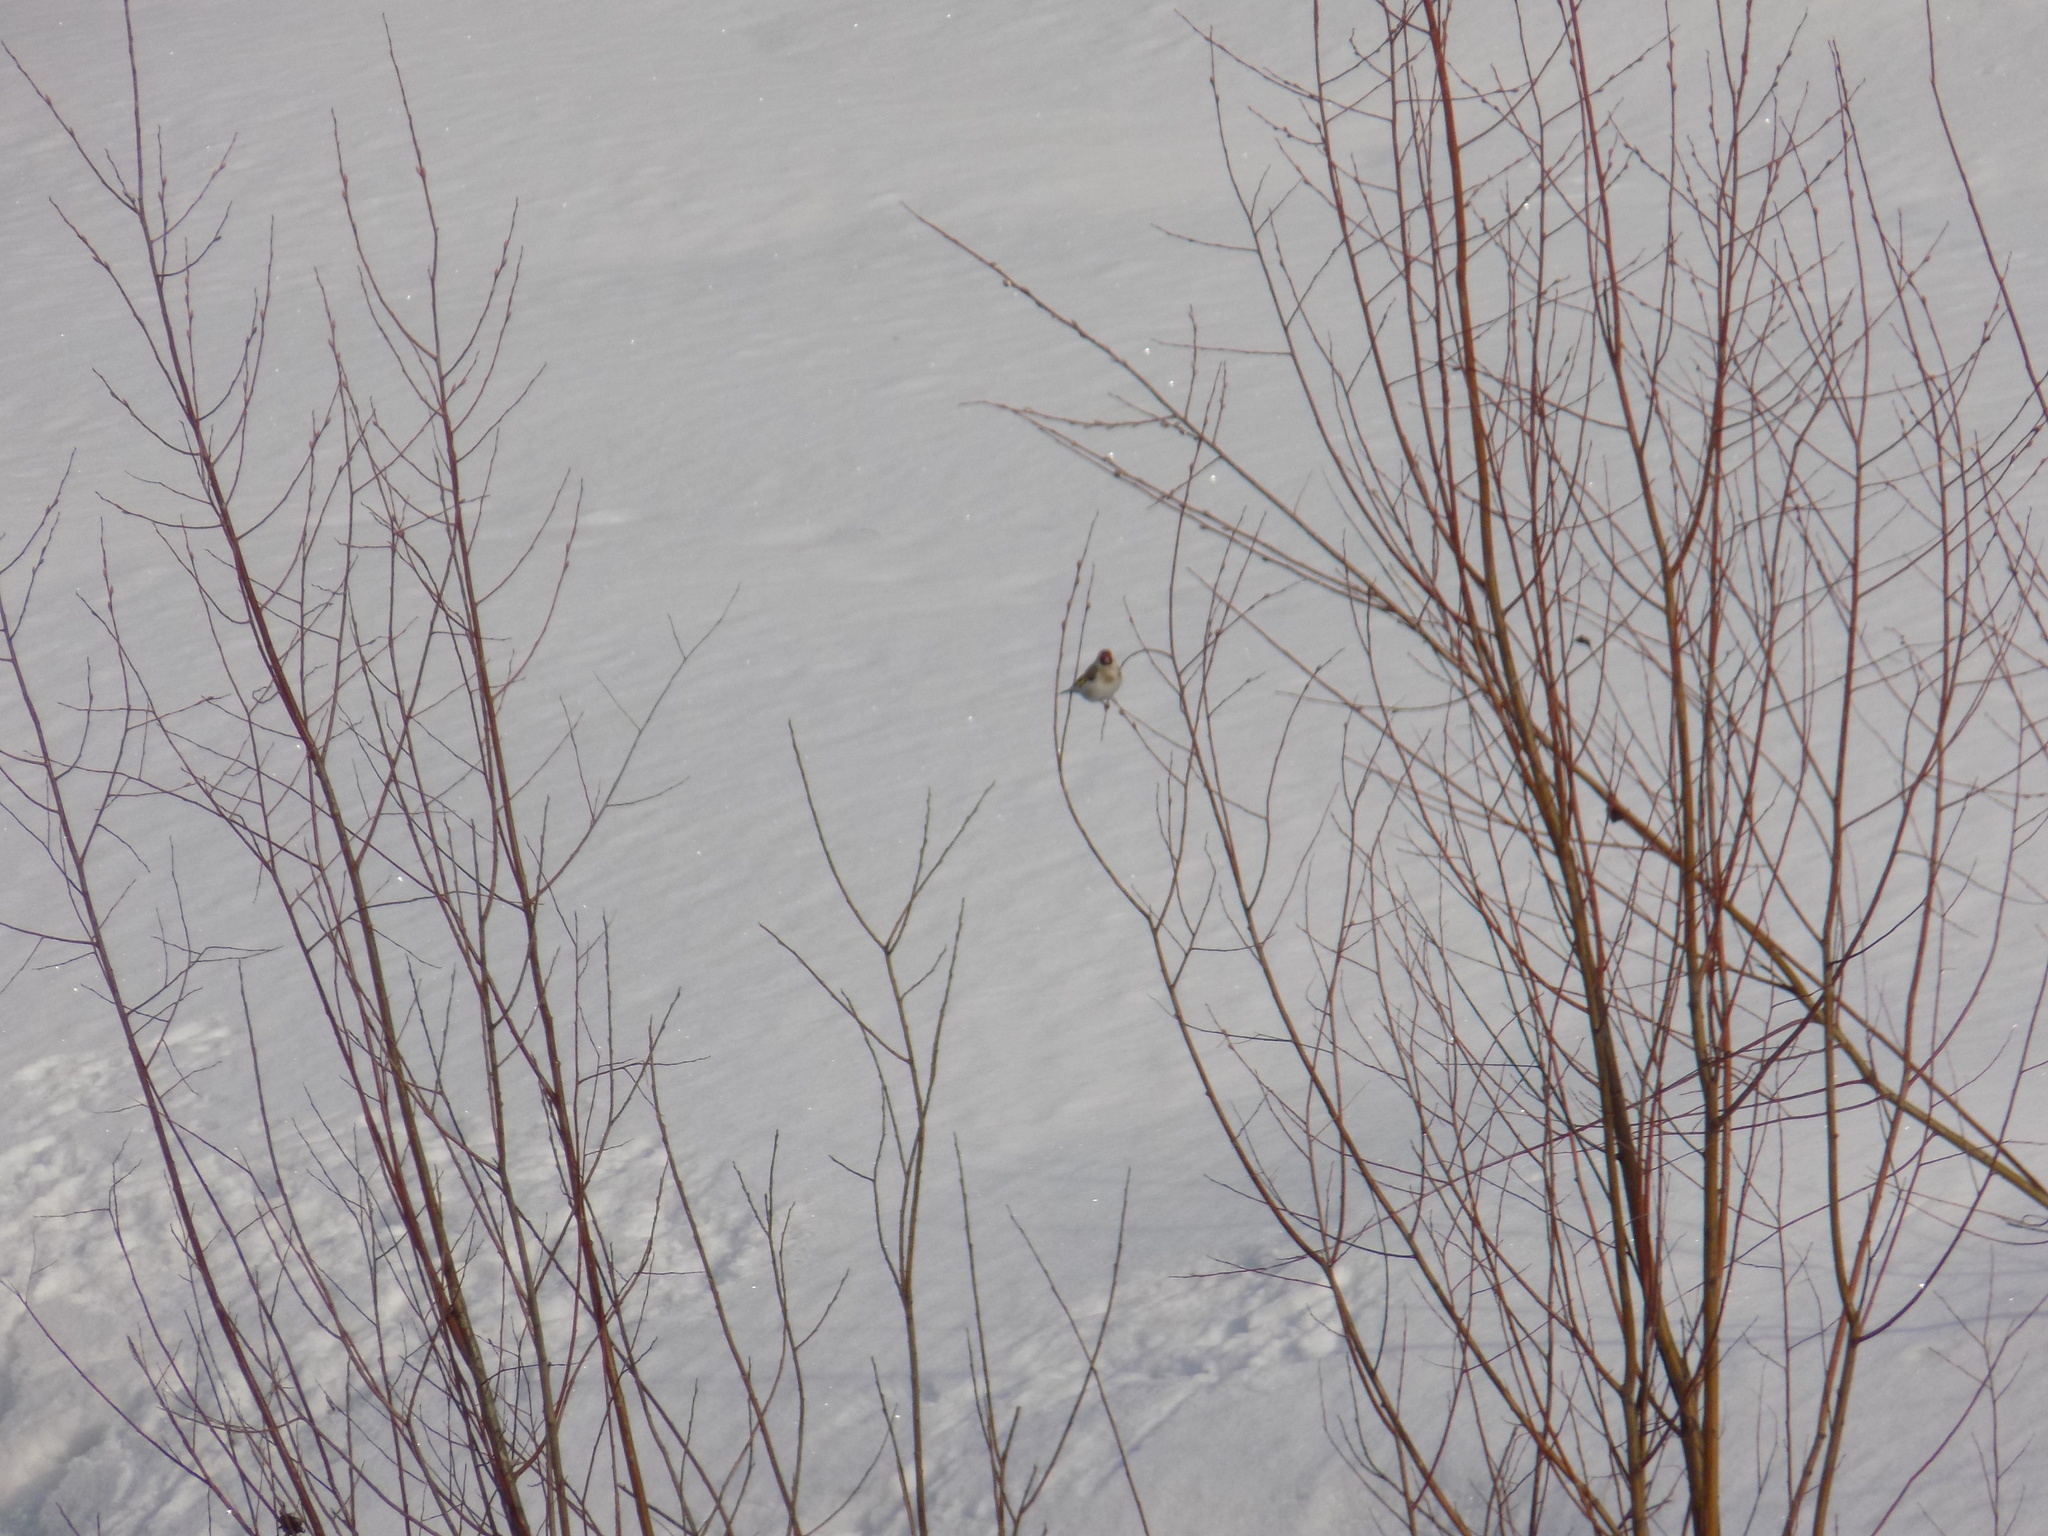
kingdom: Animalia
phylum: Chordata
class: Aves
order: Passeriformes
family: Fringillidae
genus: Carduelis
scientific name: Carduelis carduelis
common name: European goldfinch
